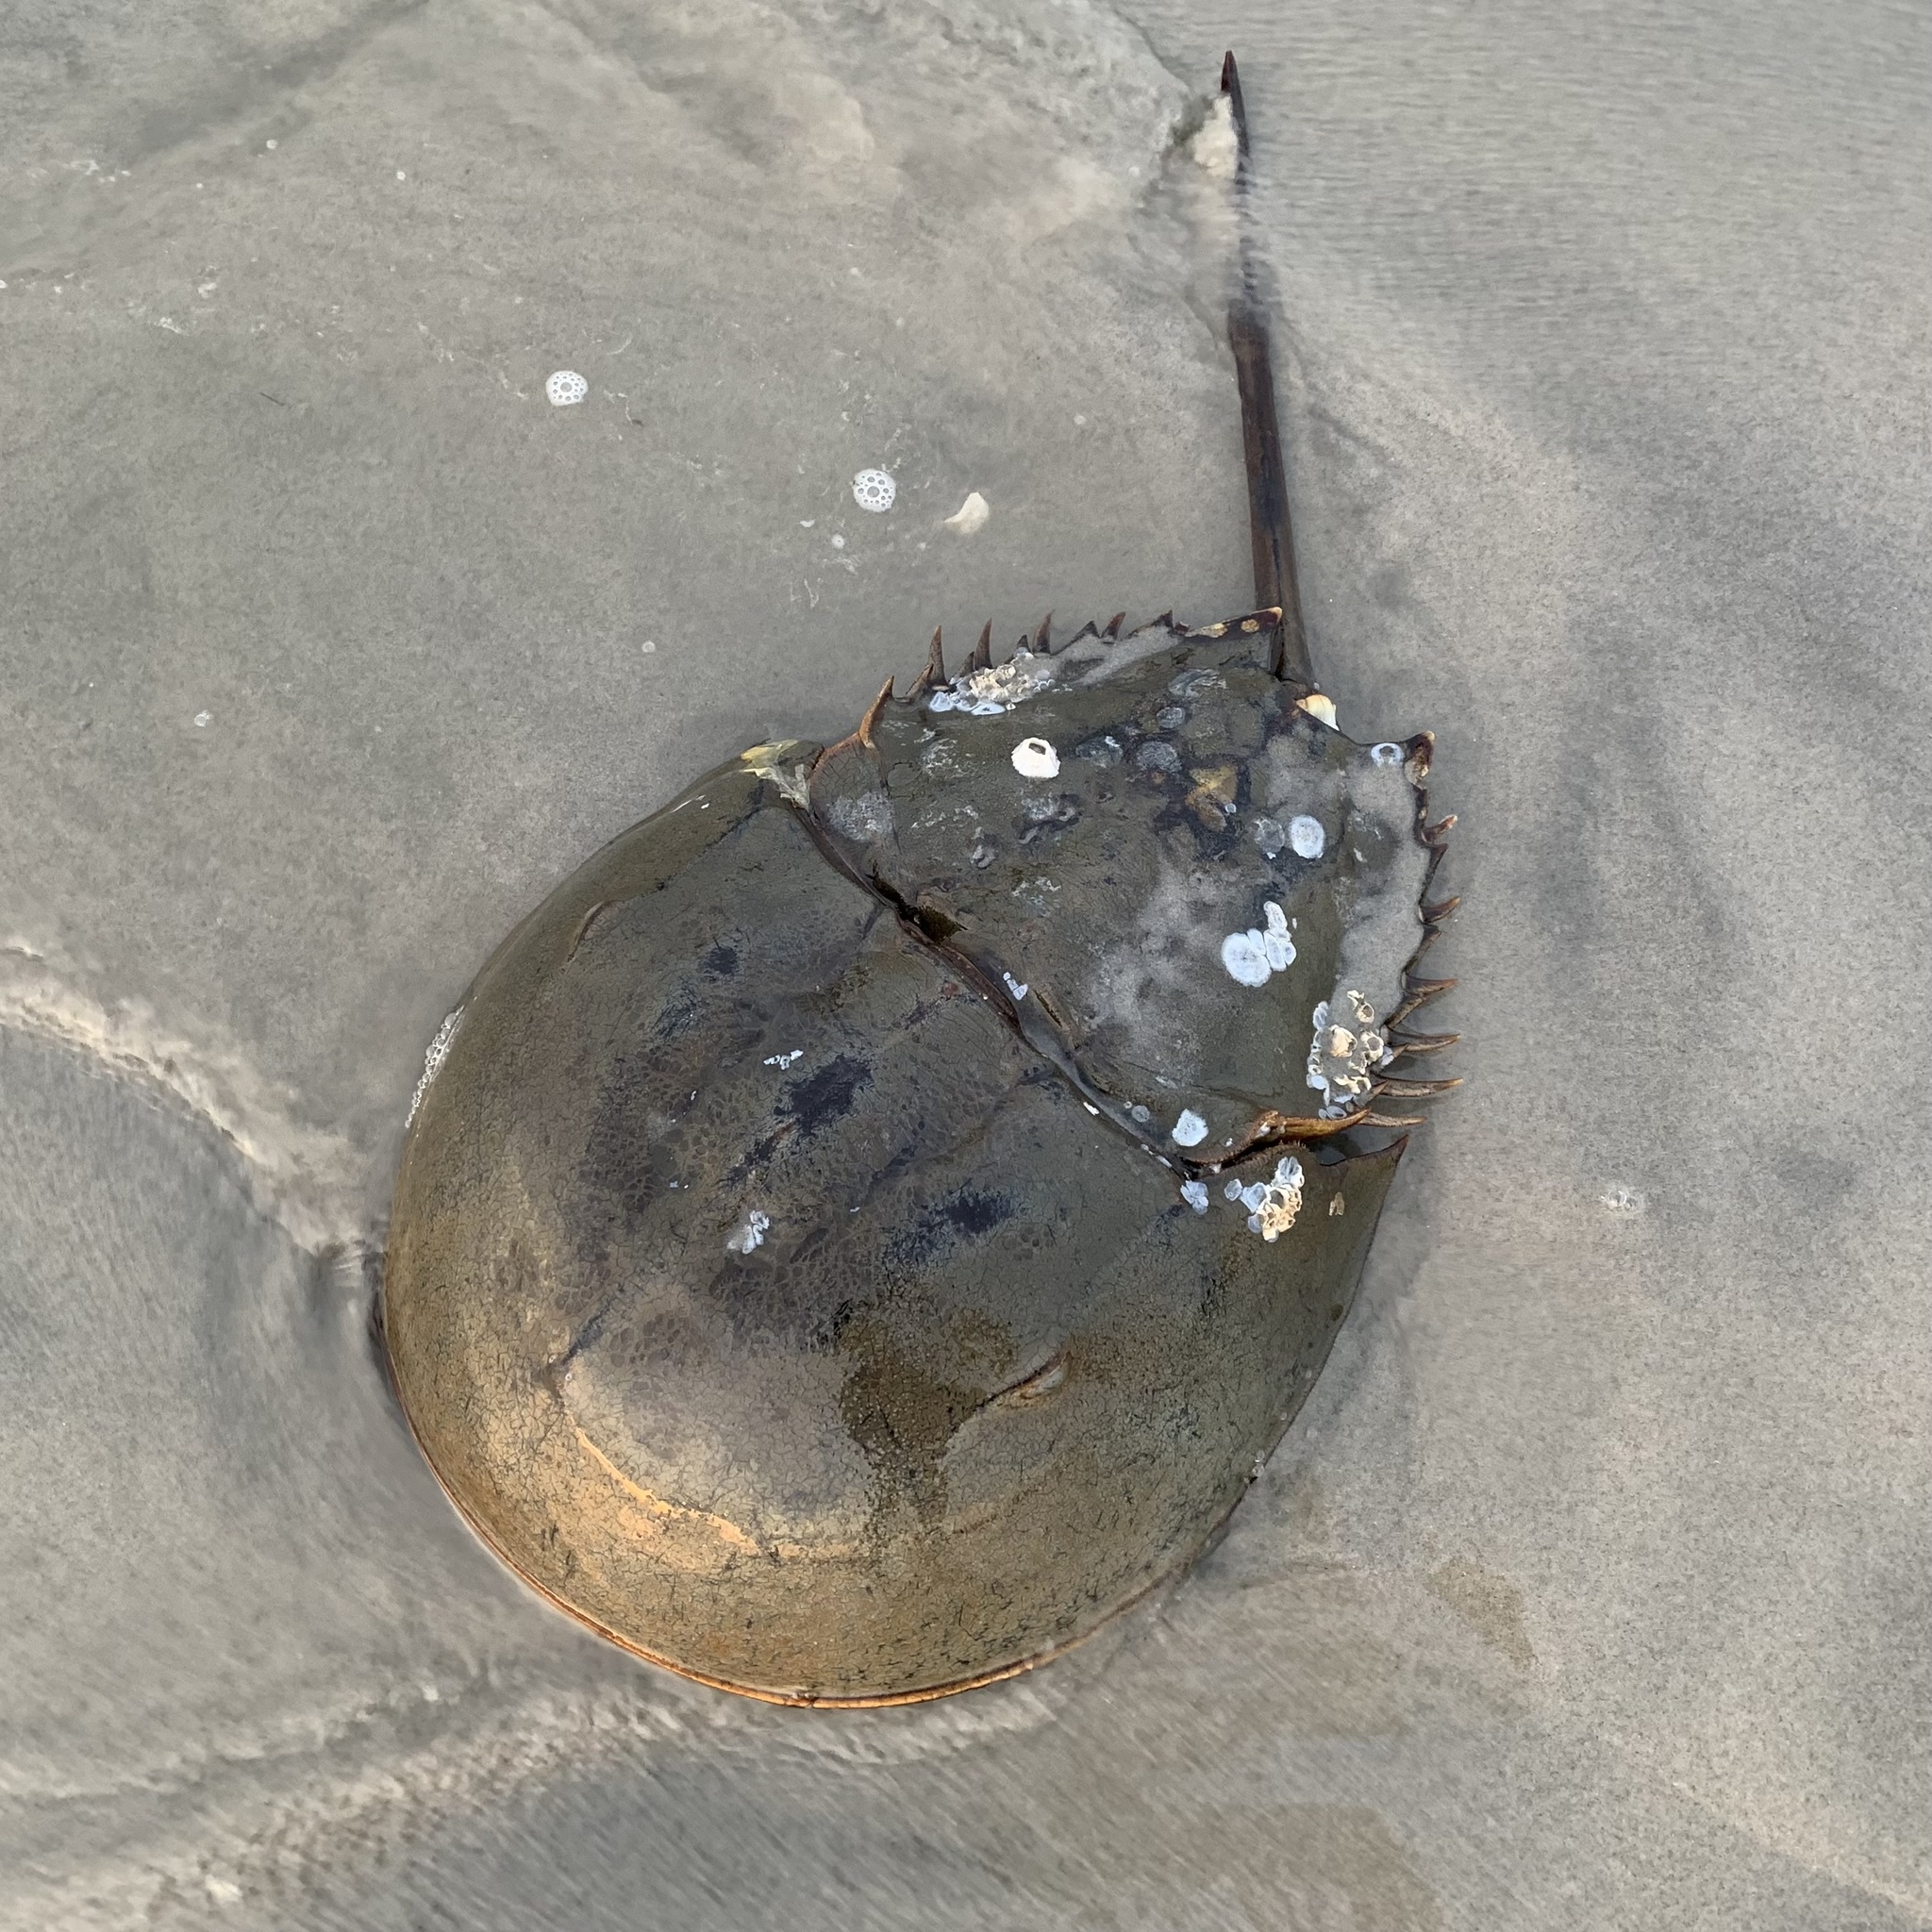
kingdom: Animalia
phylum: Arthropoda
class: Merostomata
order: Xiphosurida
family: Limulidae
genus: Limulus
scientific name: Limulus polyphemus
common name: Horseshoe crab
